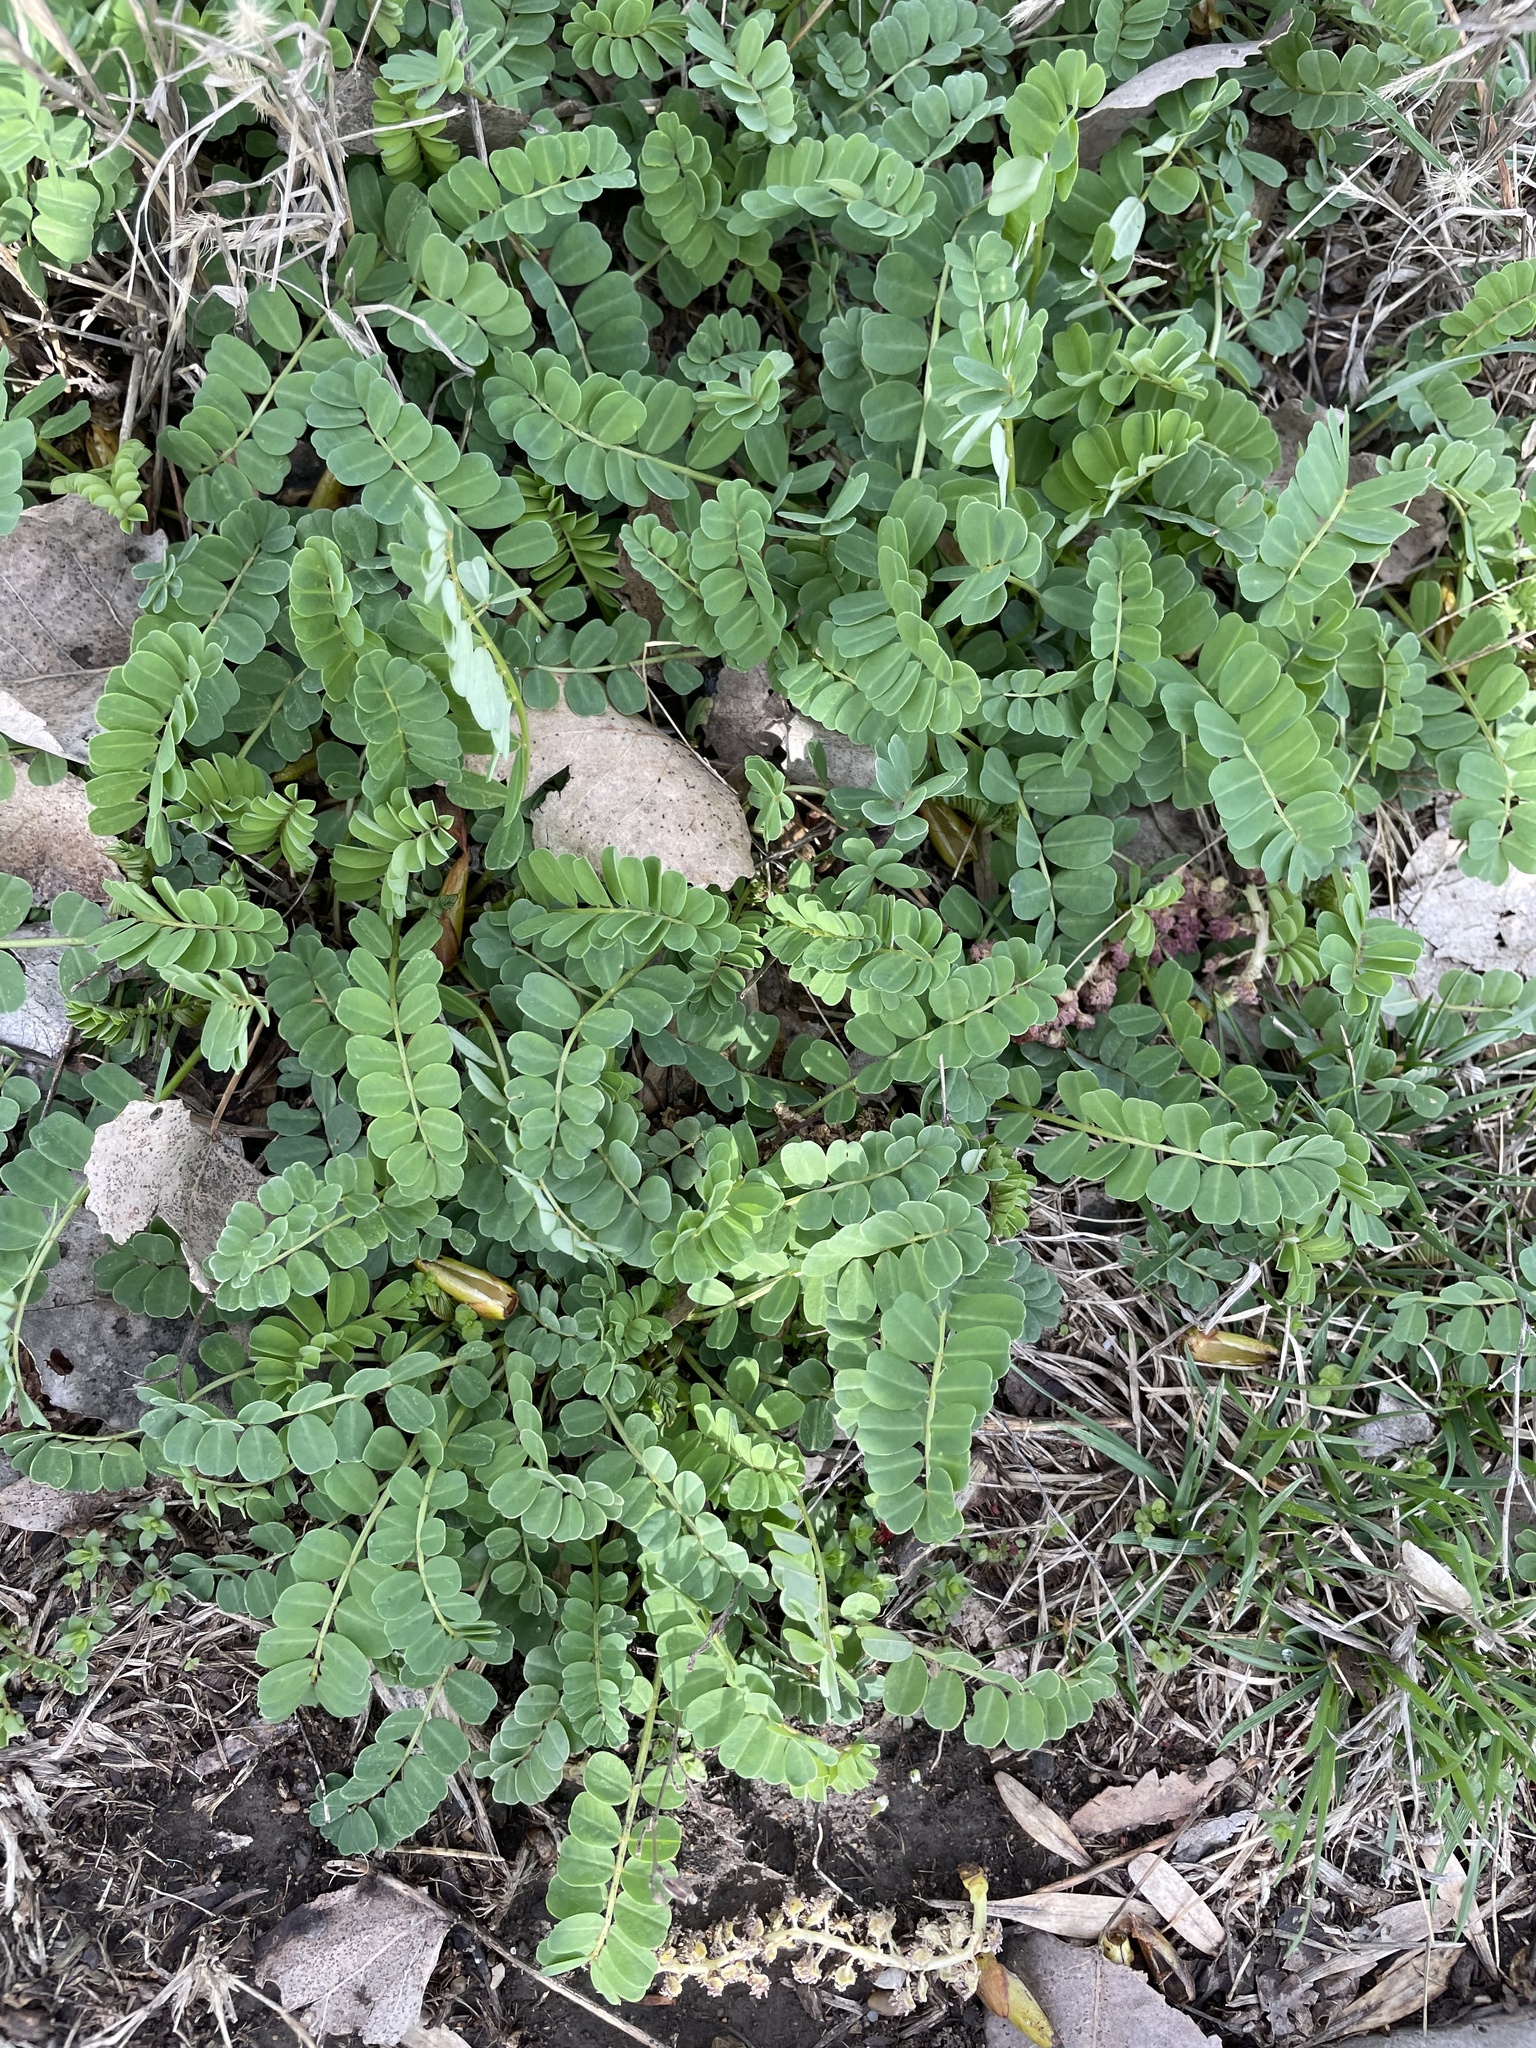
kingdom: Plantae
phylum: Tracheophyta
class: Magnoliopsida
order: Fabales
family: Fabaceae
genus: Coronilla
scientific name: Coronilla varia
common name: Crownvetch
